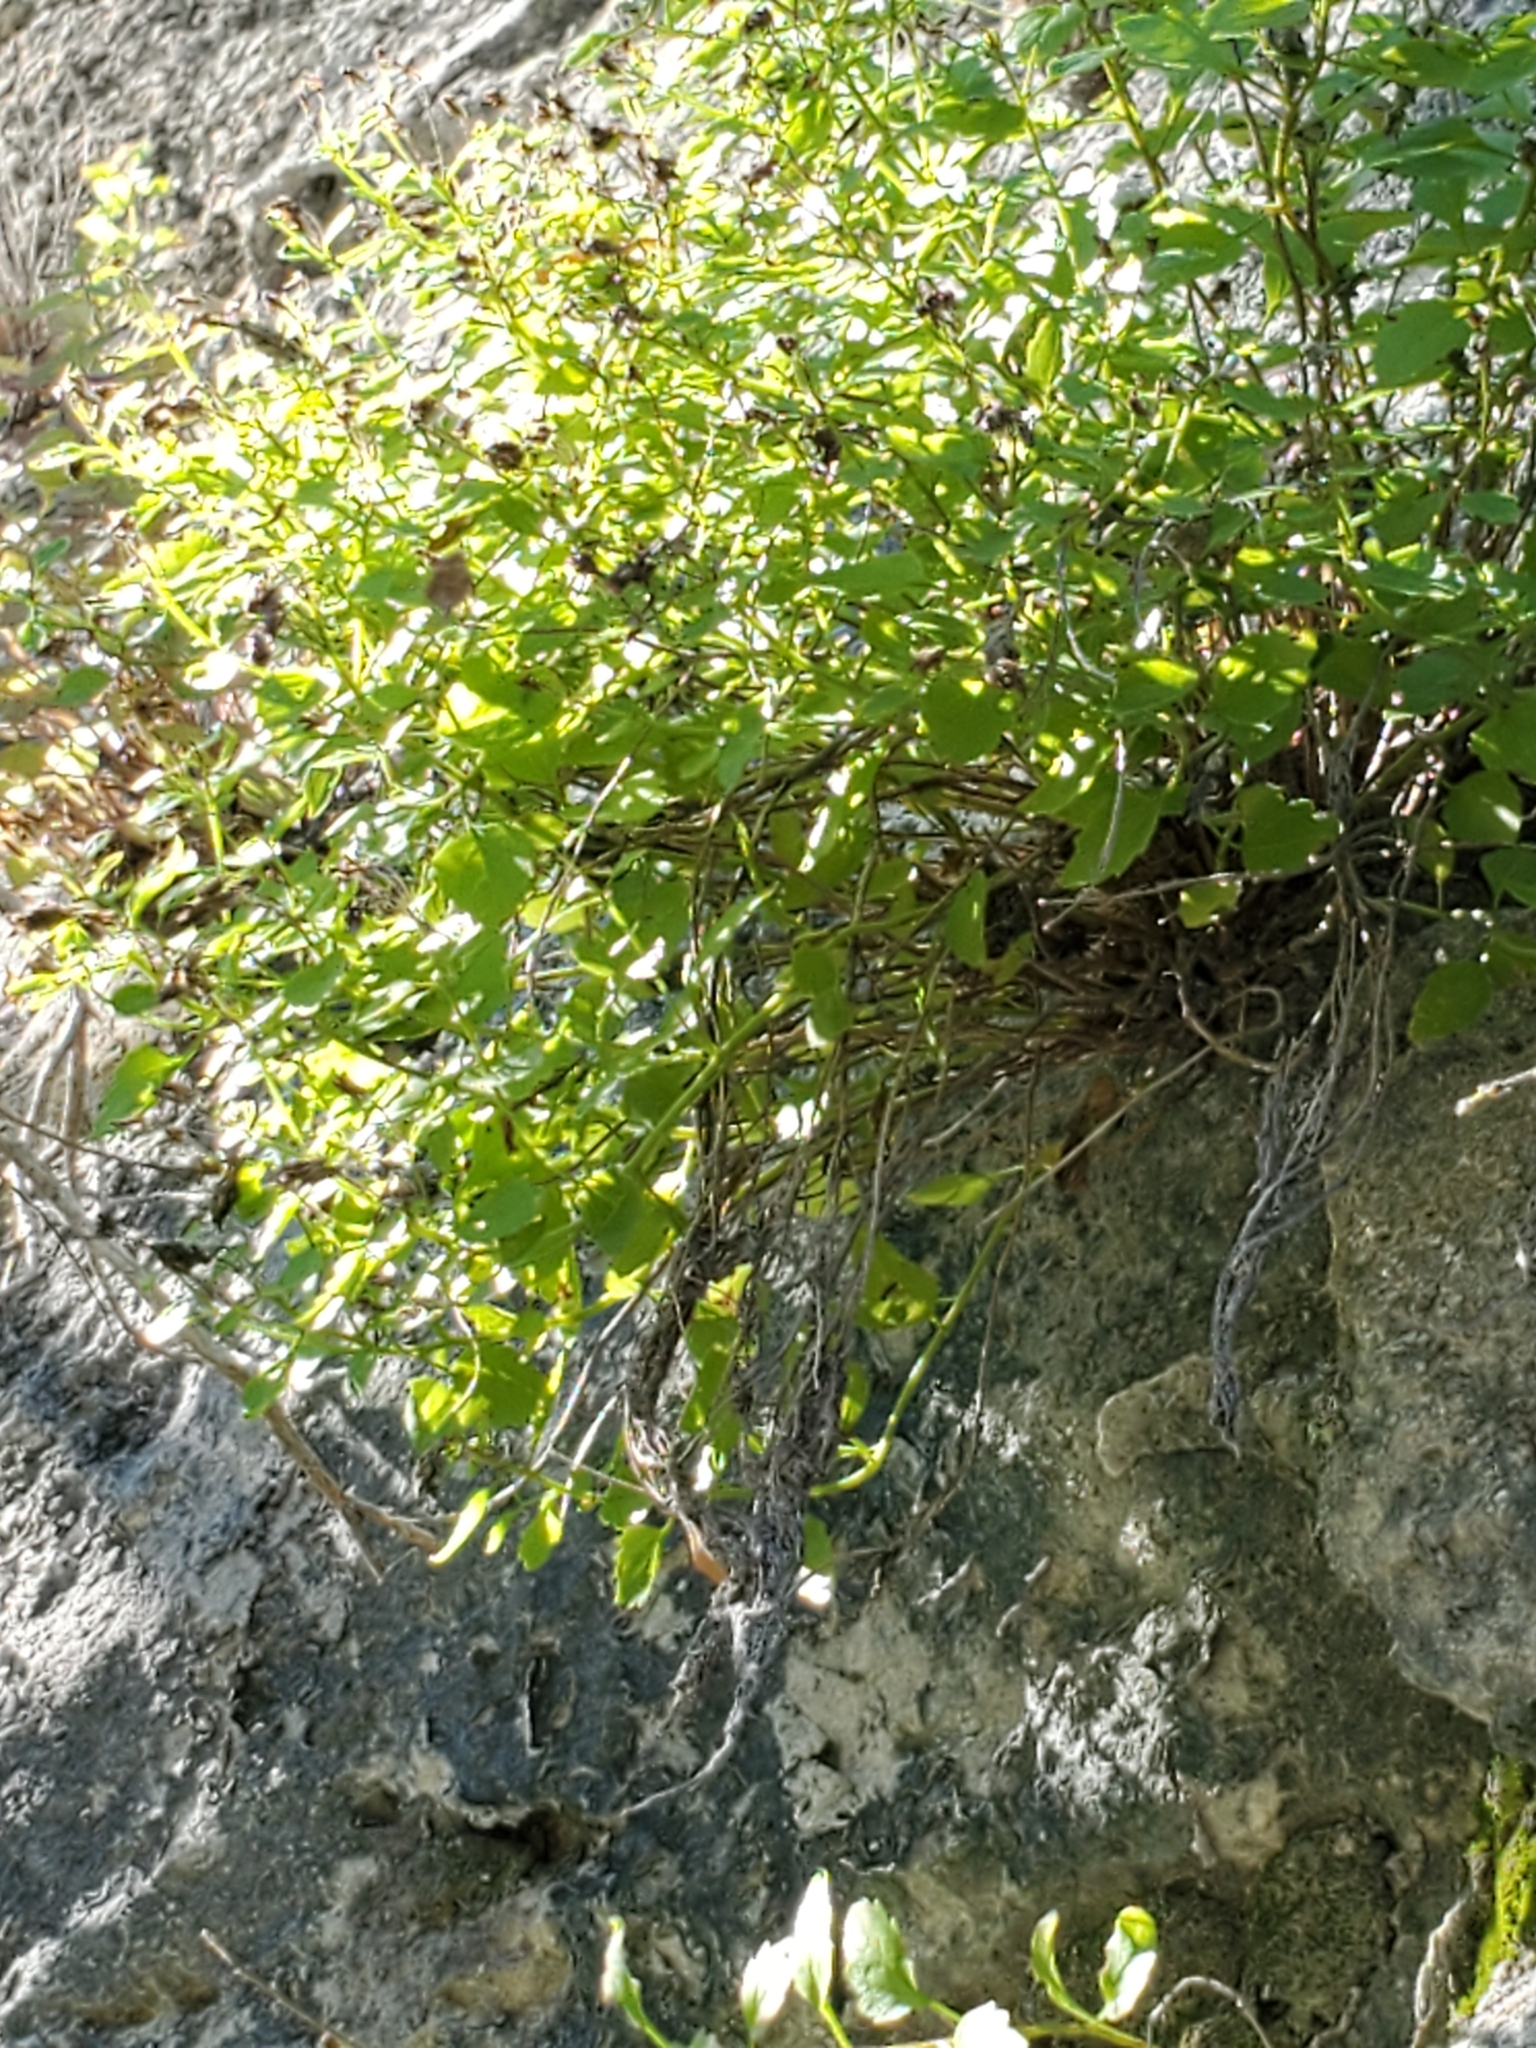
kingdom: Plantae
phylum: Tracheophyta
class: Magnoliopsida
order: Asterales
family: Asteraceae
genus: Laphamia
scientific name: Laphamia lindheimeri
